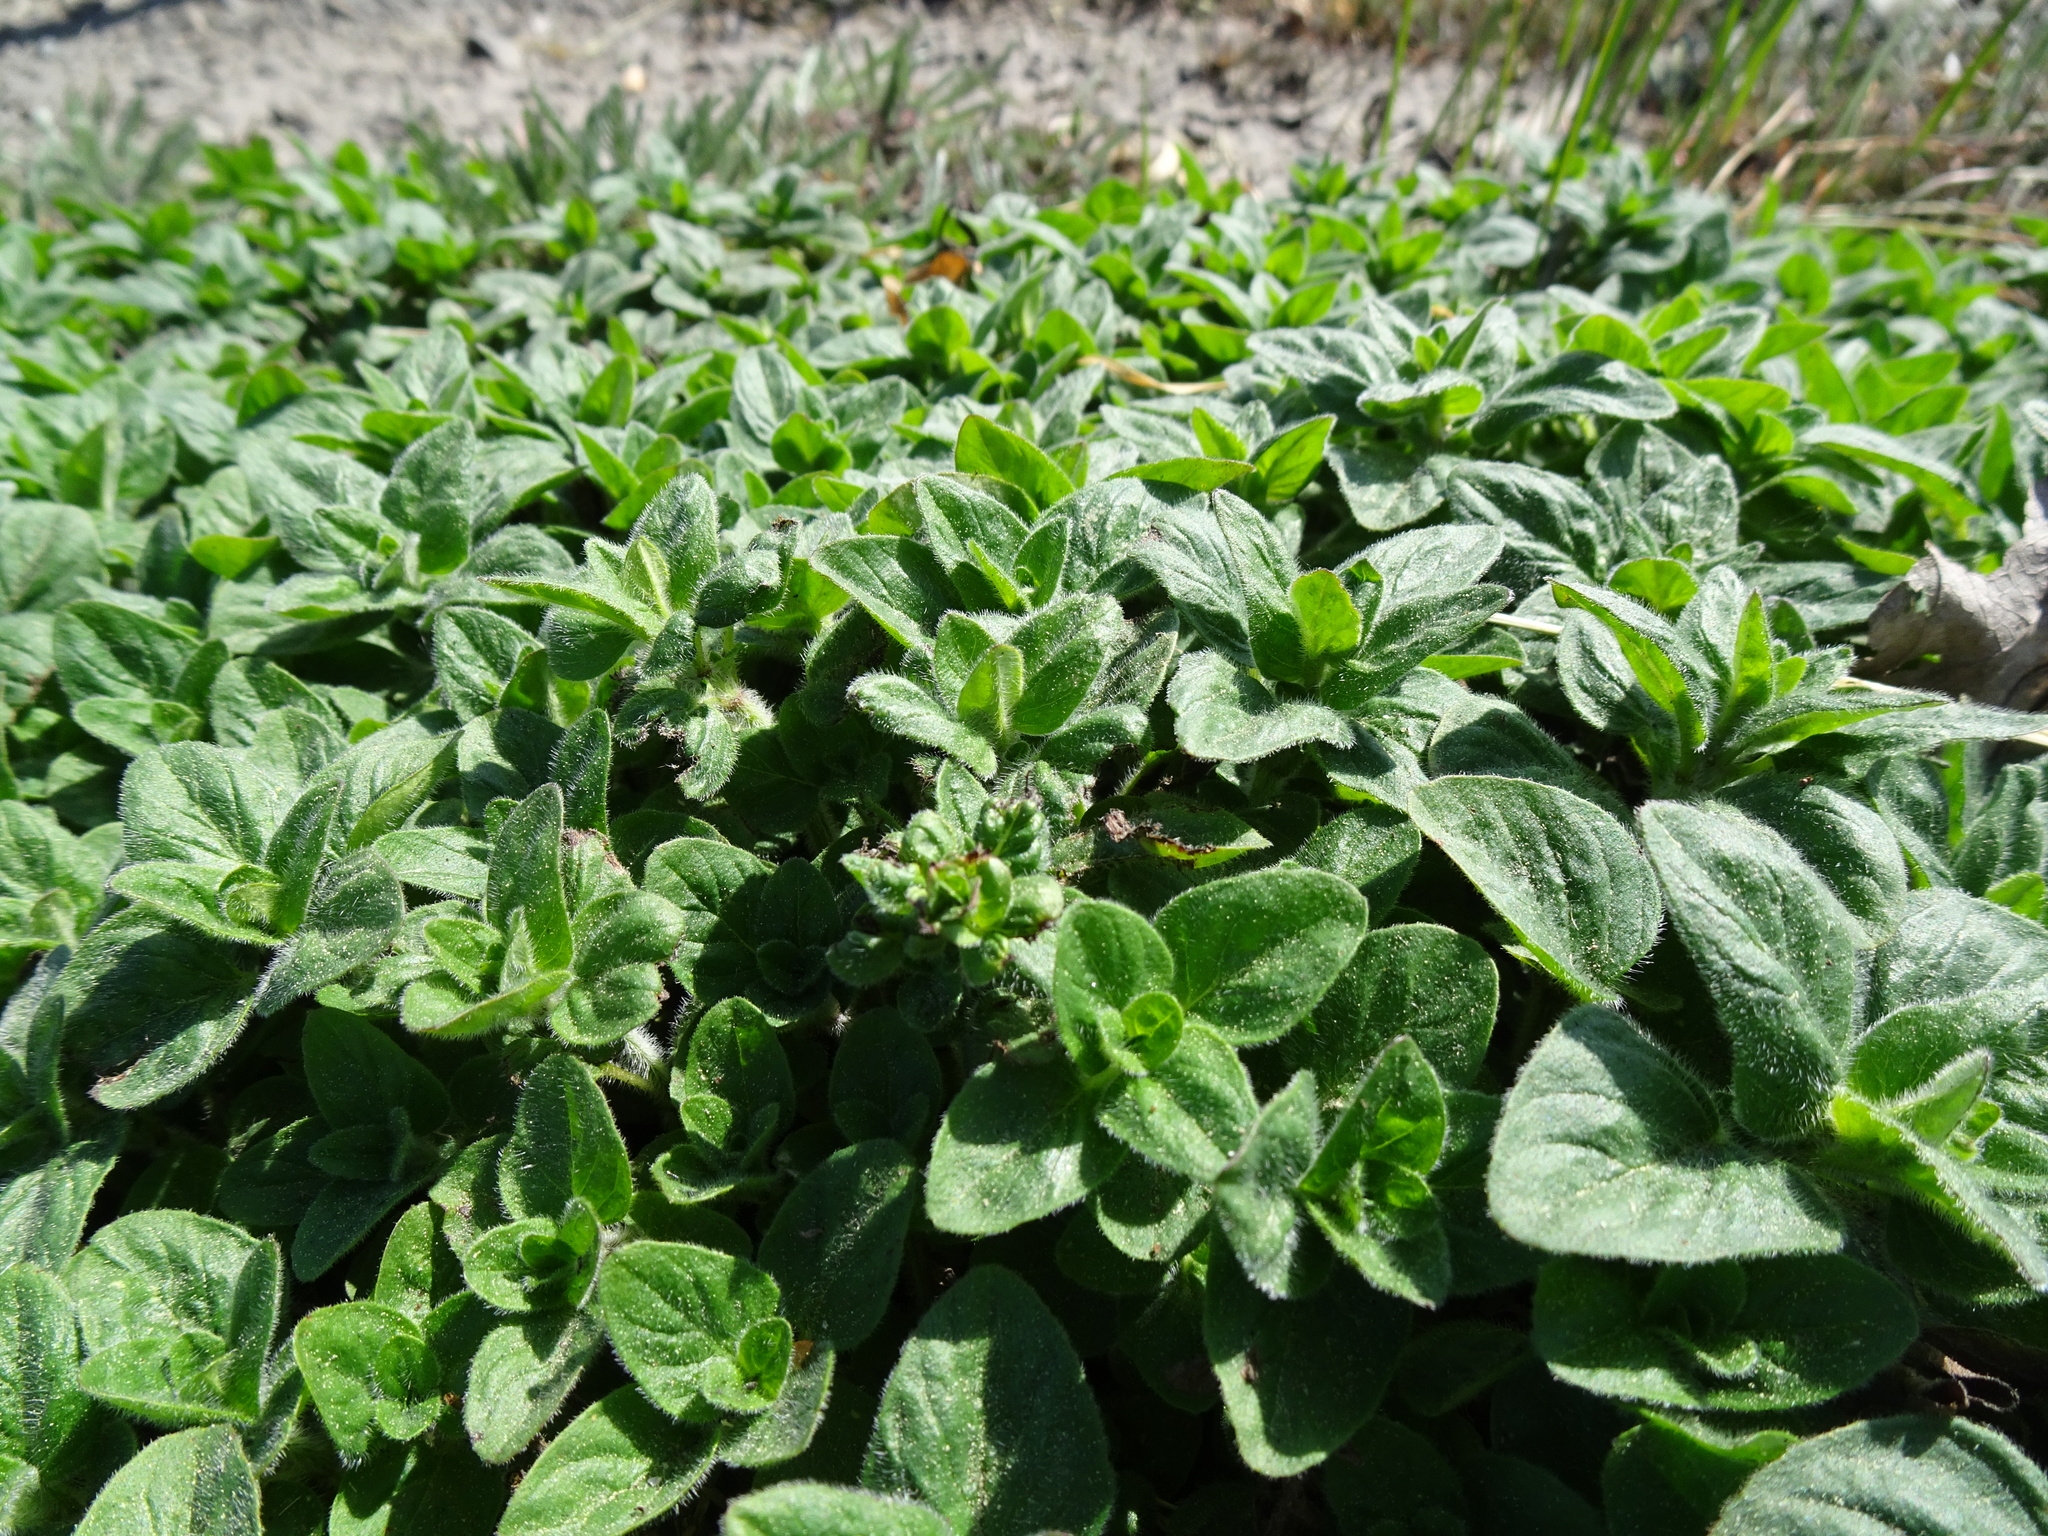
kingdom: Plantae
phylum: Tracheophyta
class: Magnoliopsida
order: Lamiales
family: Lamiaceae
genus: Origanum
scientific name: Origanum vulgare
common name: Wild marjoram
